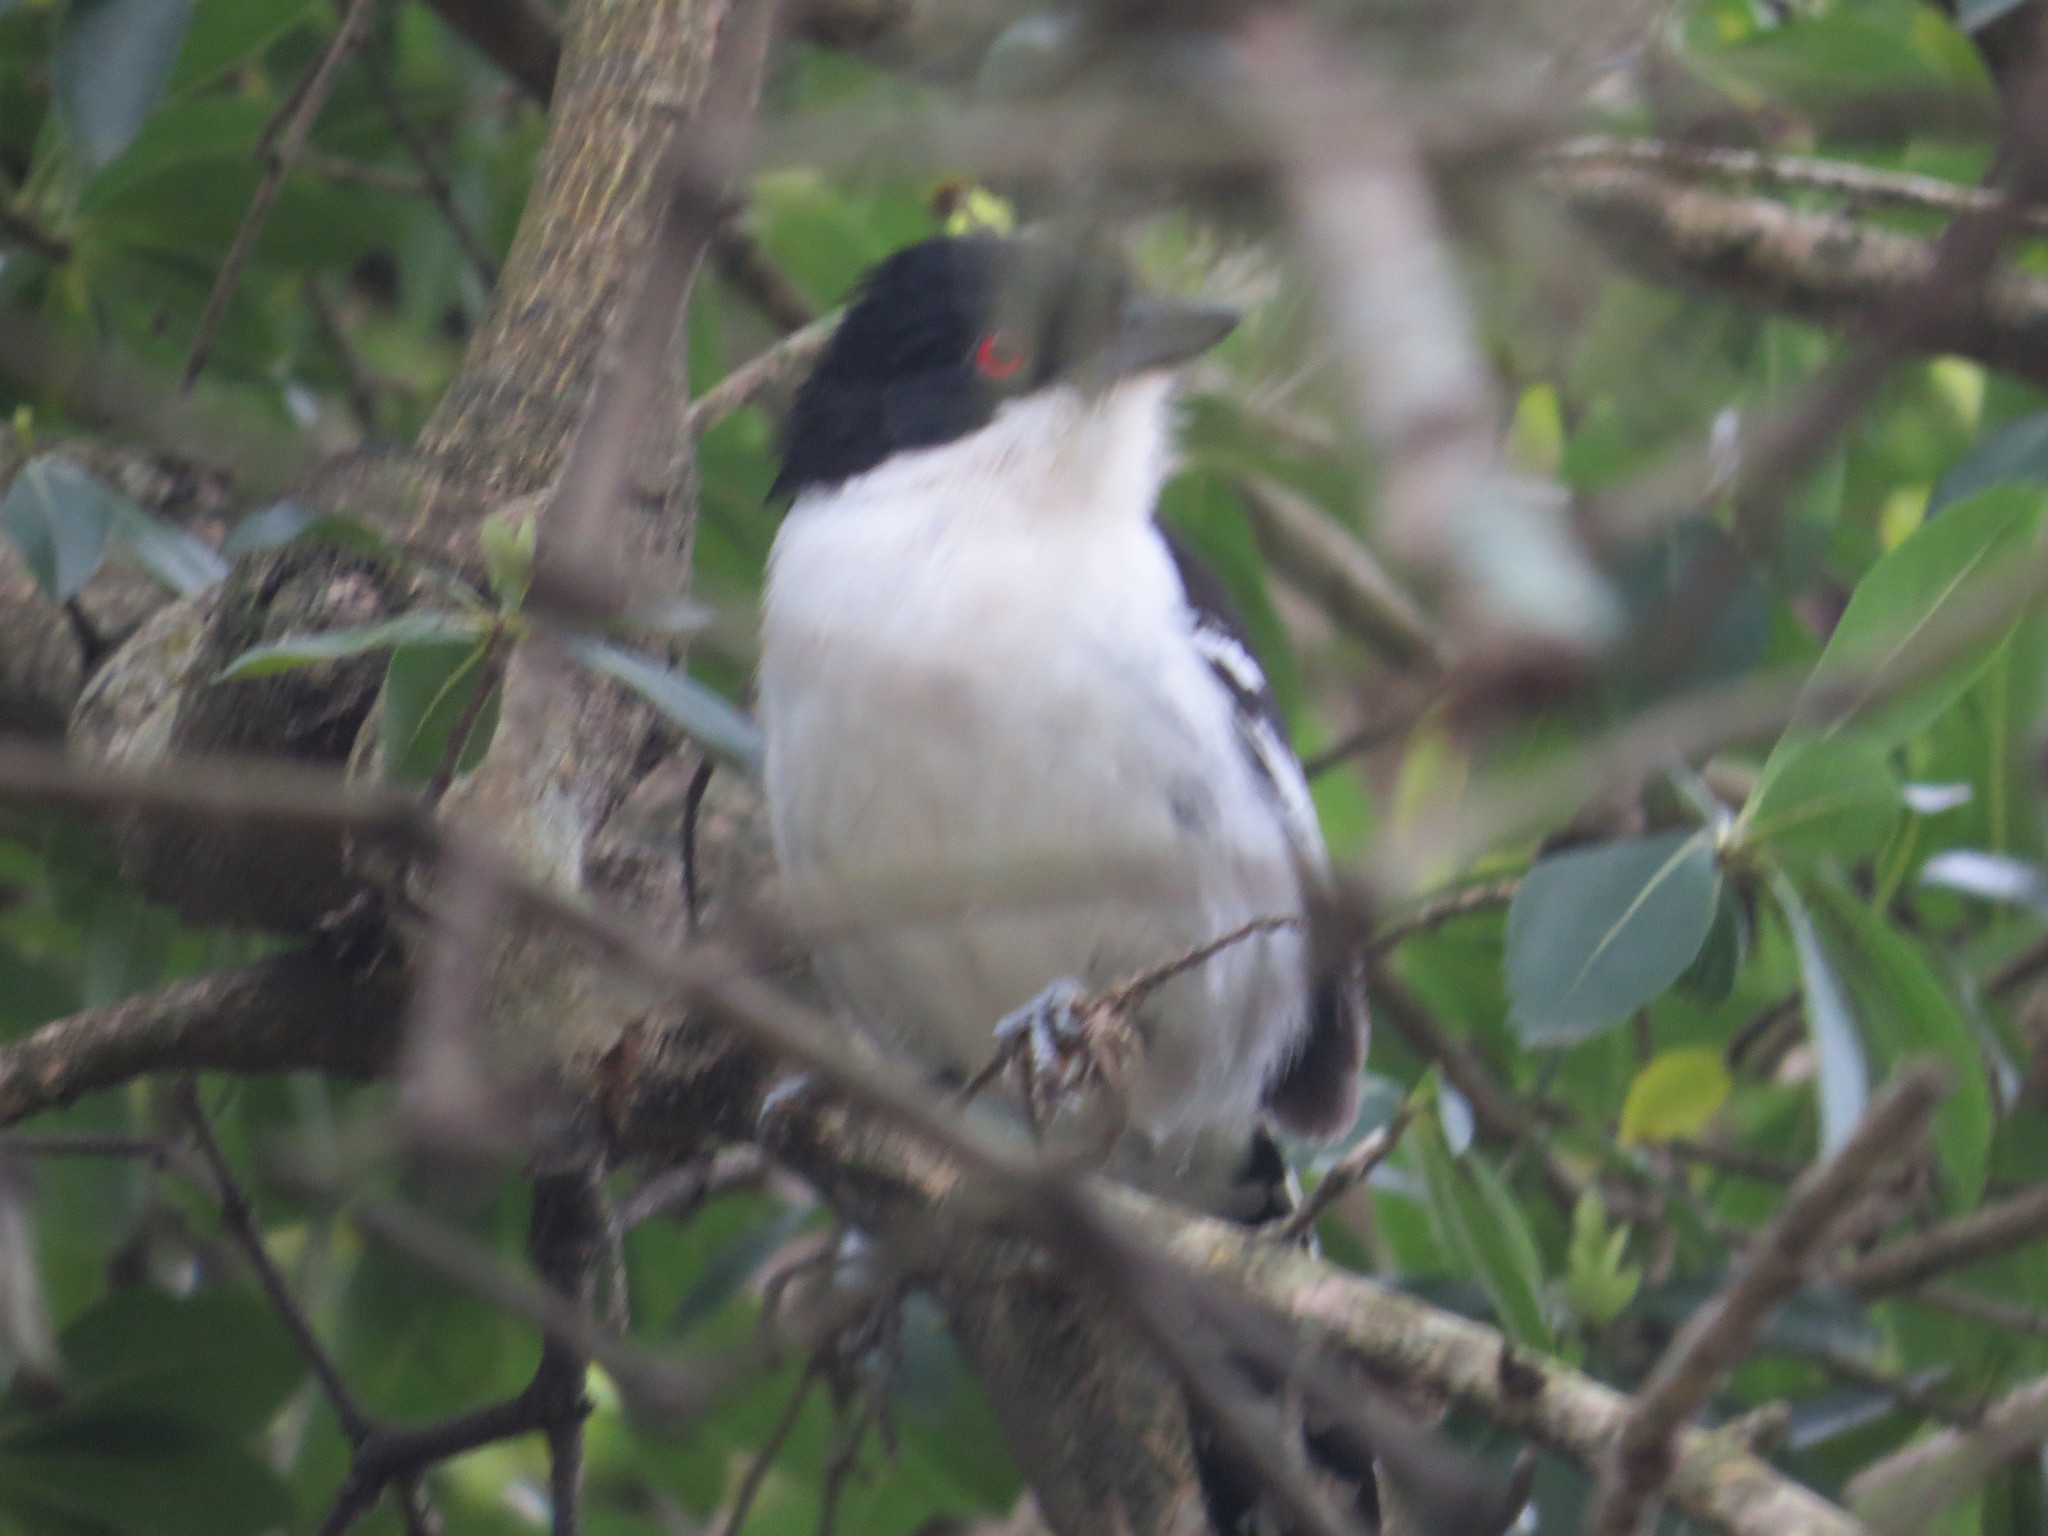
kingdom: Animalia
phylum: Chordata
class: Aves
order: Passeriformes
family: Thamnophilidae
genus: Taraba
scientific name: Taraba major
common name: Great antshrike
